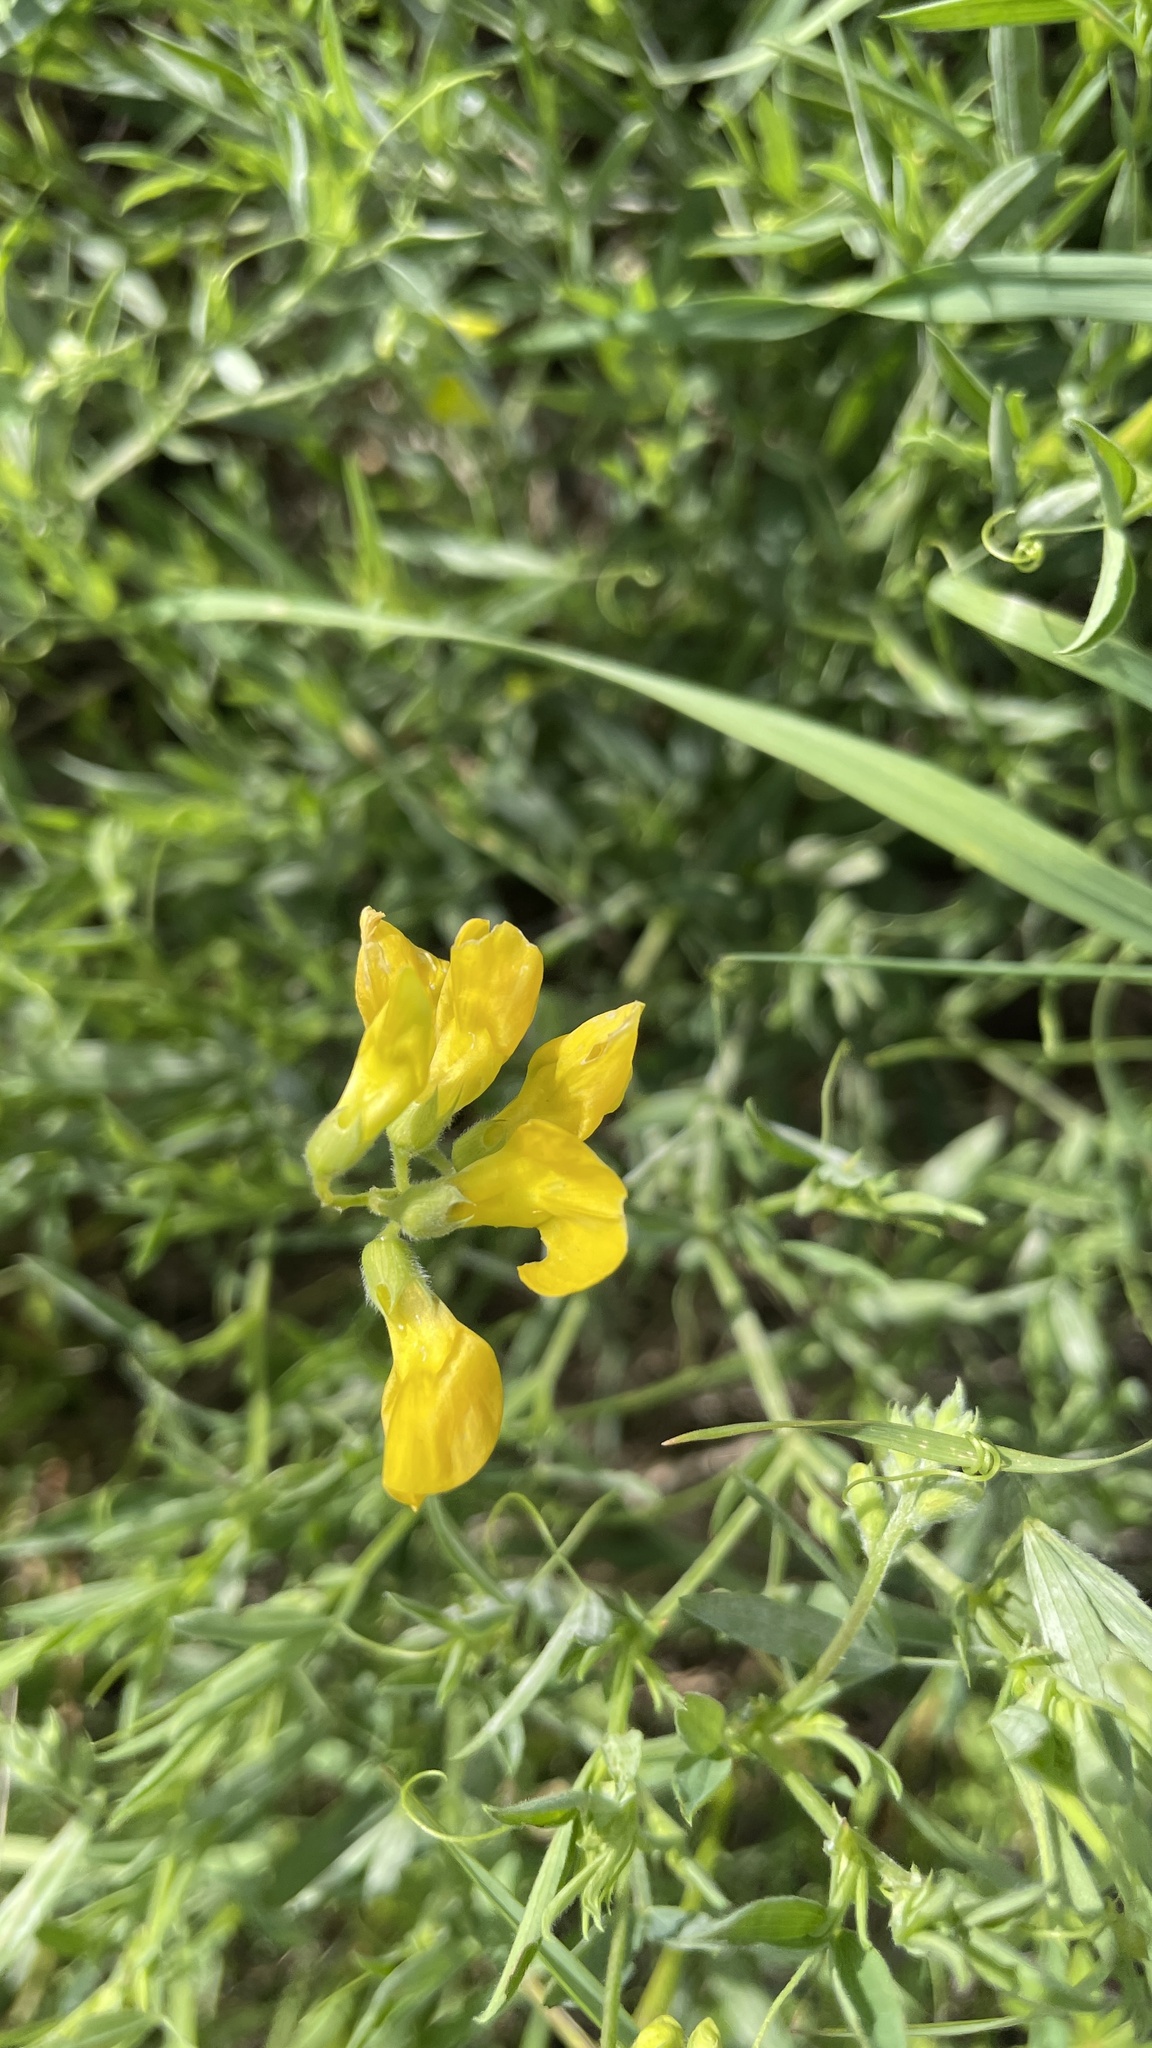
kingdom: Plantae
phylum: Tracheophyta
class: Magnoliopsida
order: Fabales
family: Fabaceae
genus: Lathyrus
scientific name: Lathyrus pratensis
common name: Meadow vetchling
